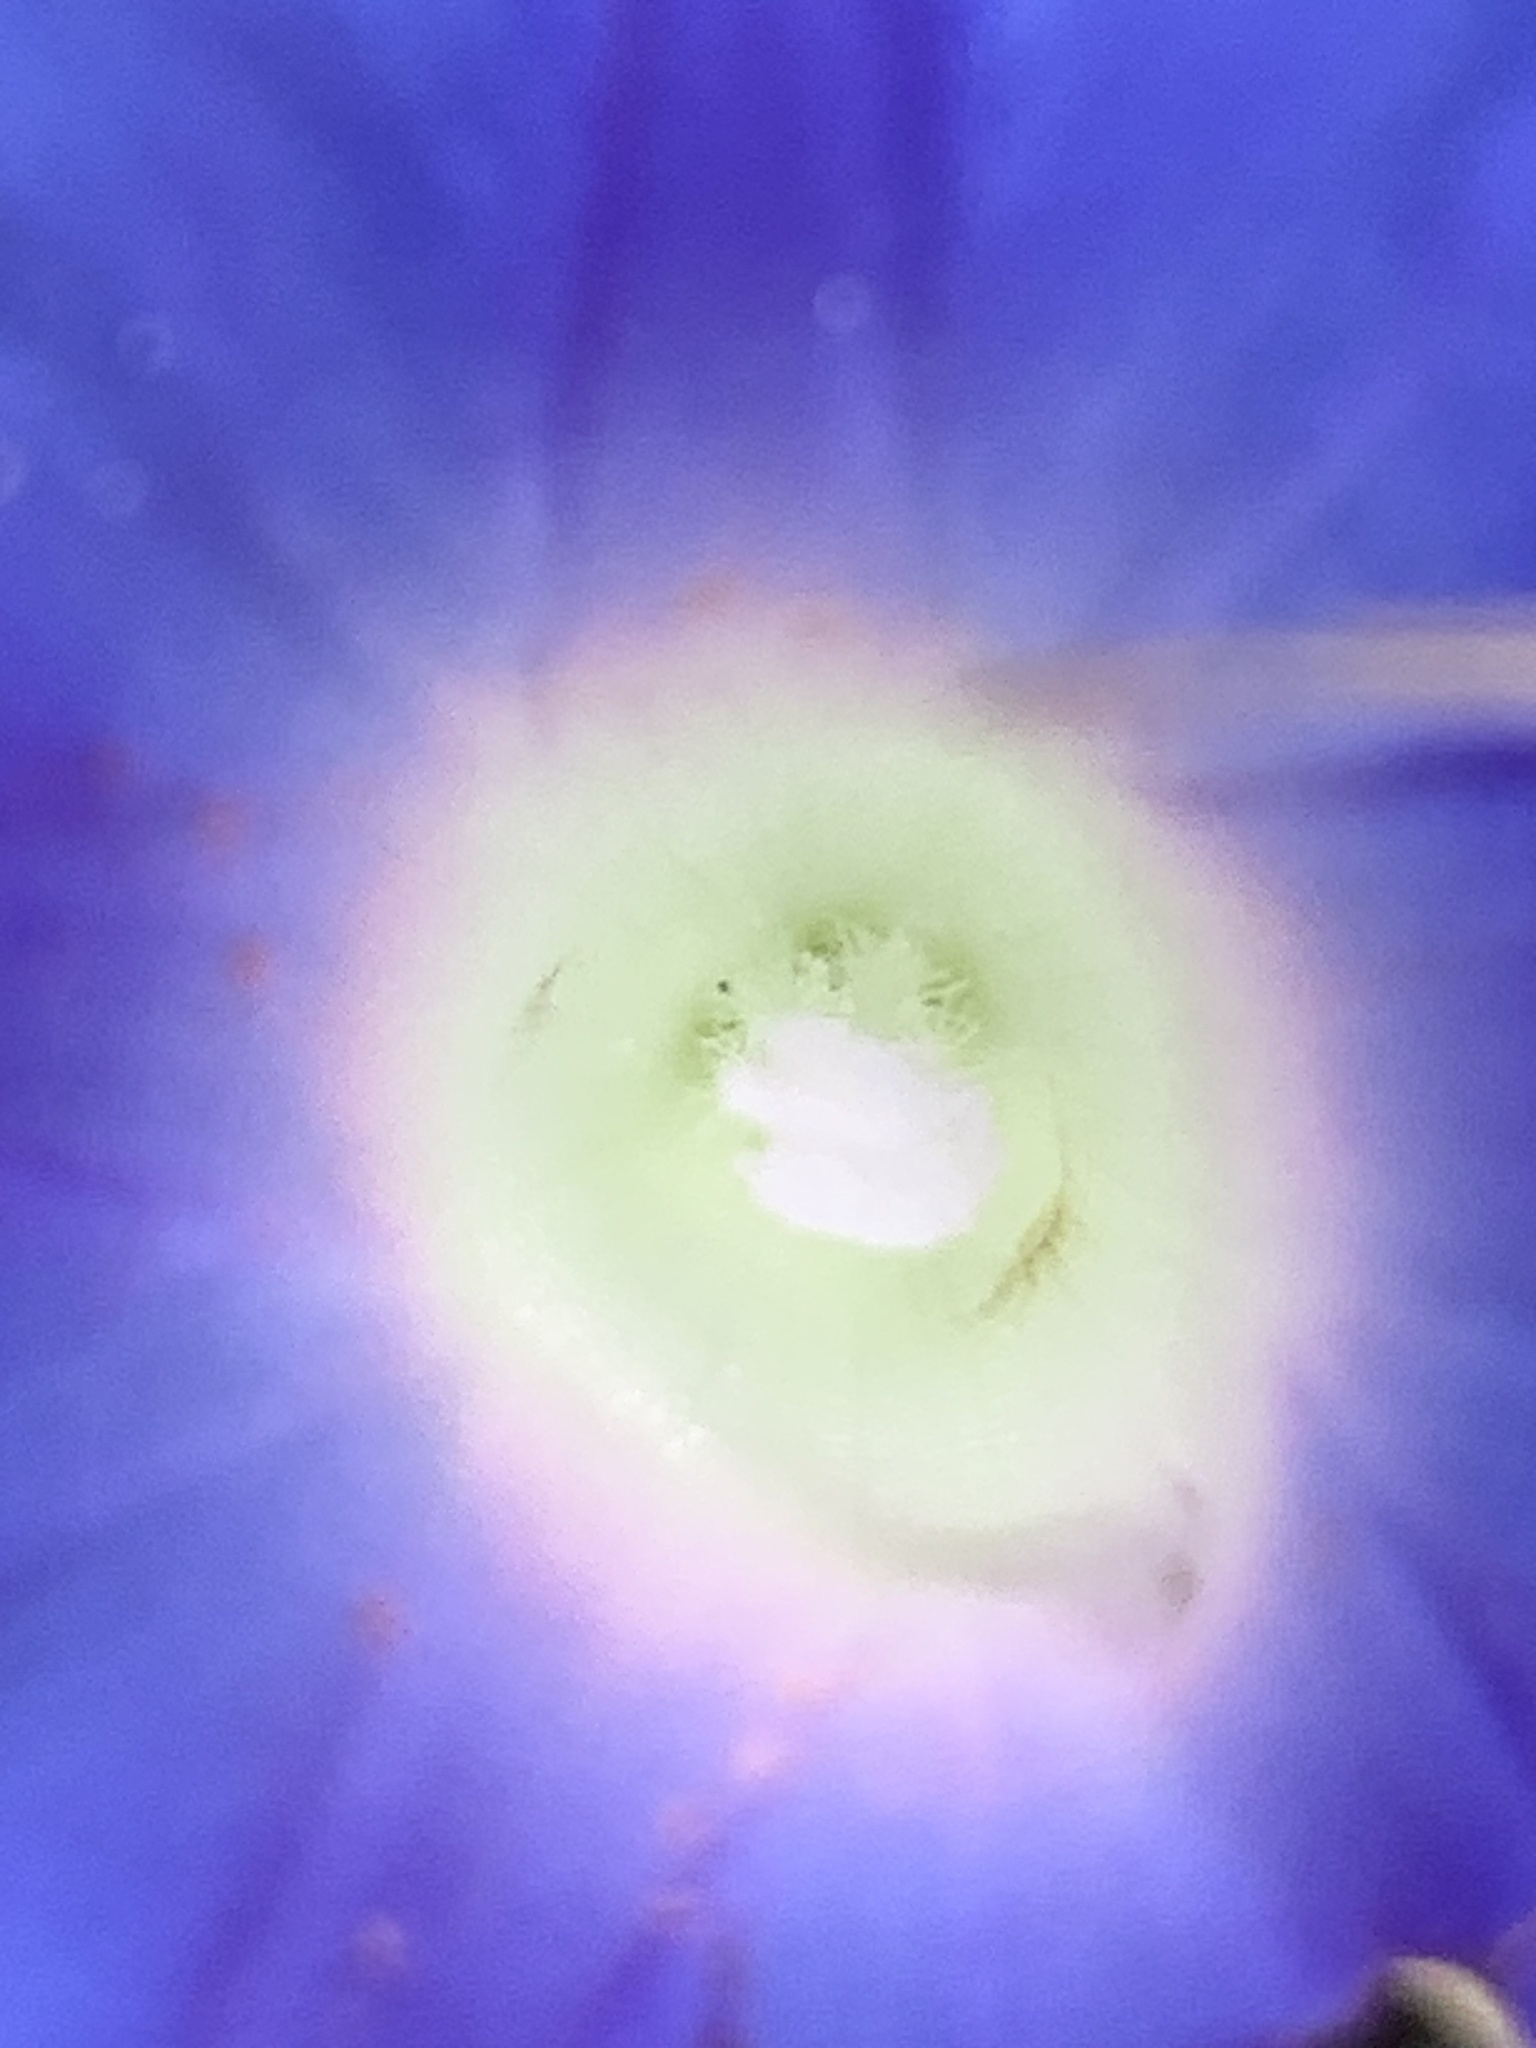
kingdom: Plantae
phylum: Tracheophyta
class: Magnoliopsida
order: Solanales
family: Convolvulaceae
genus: Ipomoea
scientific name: Ipomoea hederacea
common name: Ivy-leaved morning-glory
